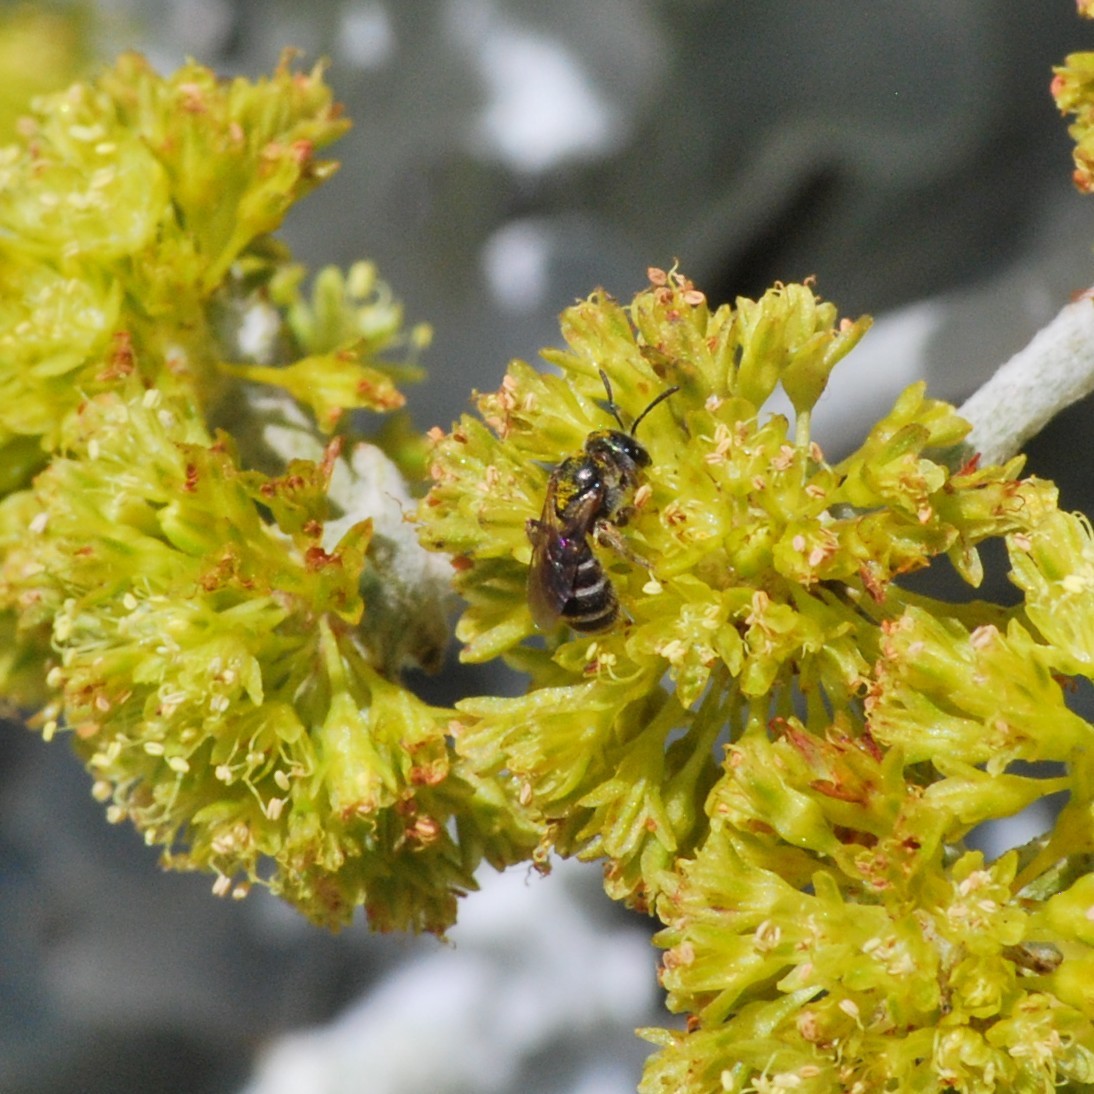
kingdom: Animalia
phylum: Arthropoda
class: Insecta
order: Hymenoptera
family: Halictidae
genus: Halictus
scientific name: Halictus tripartitus
